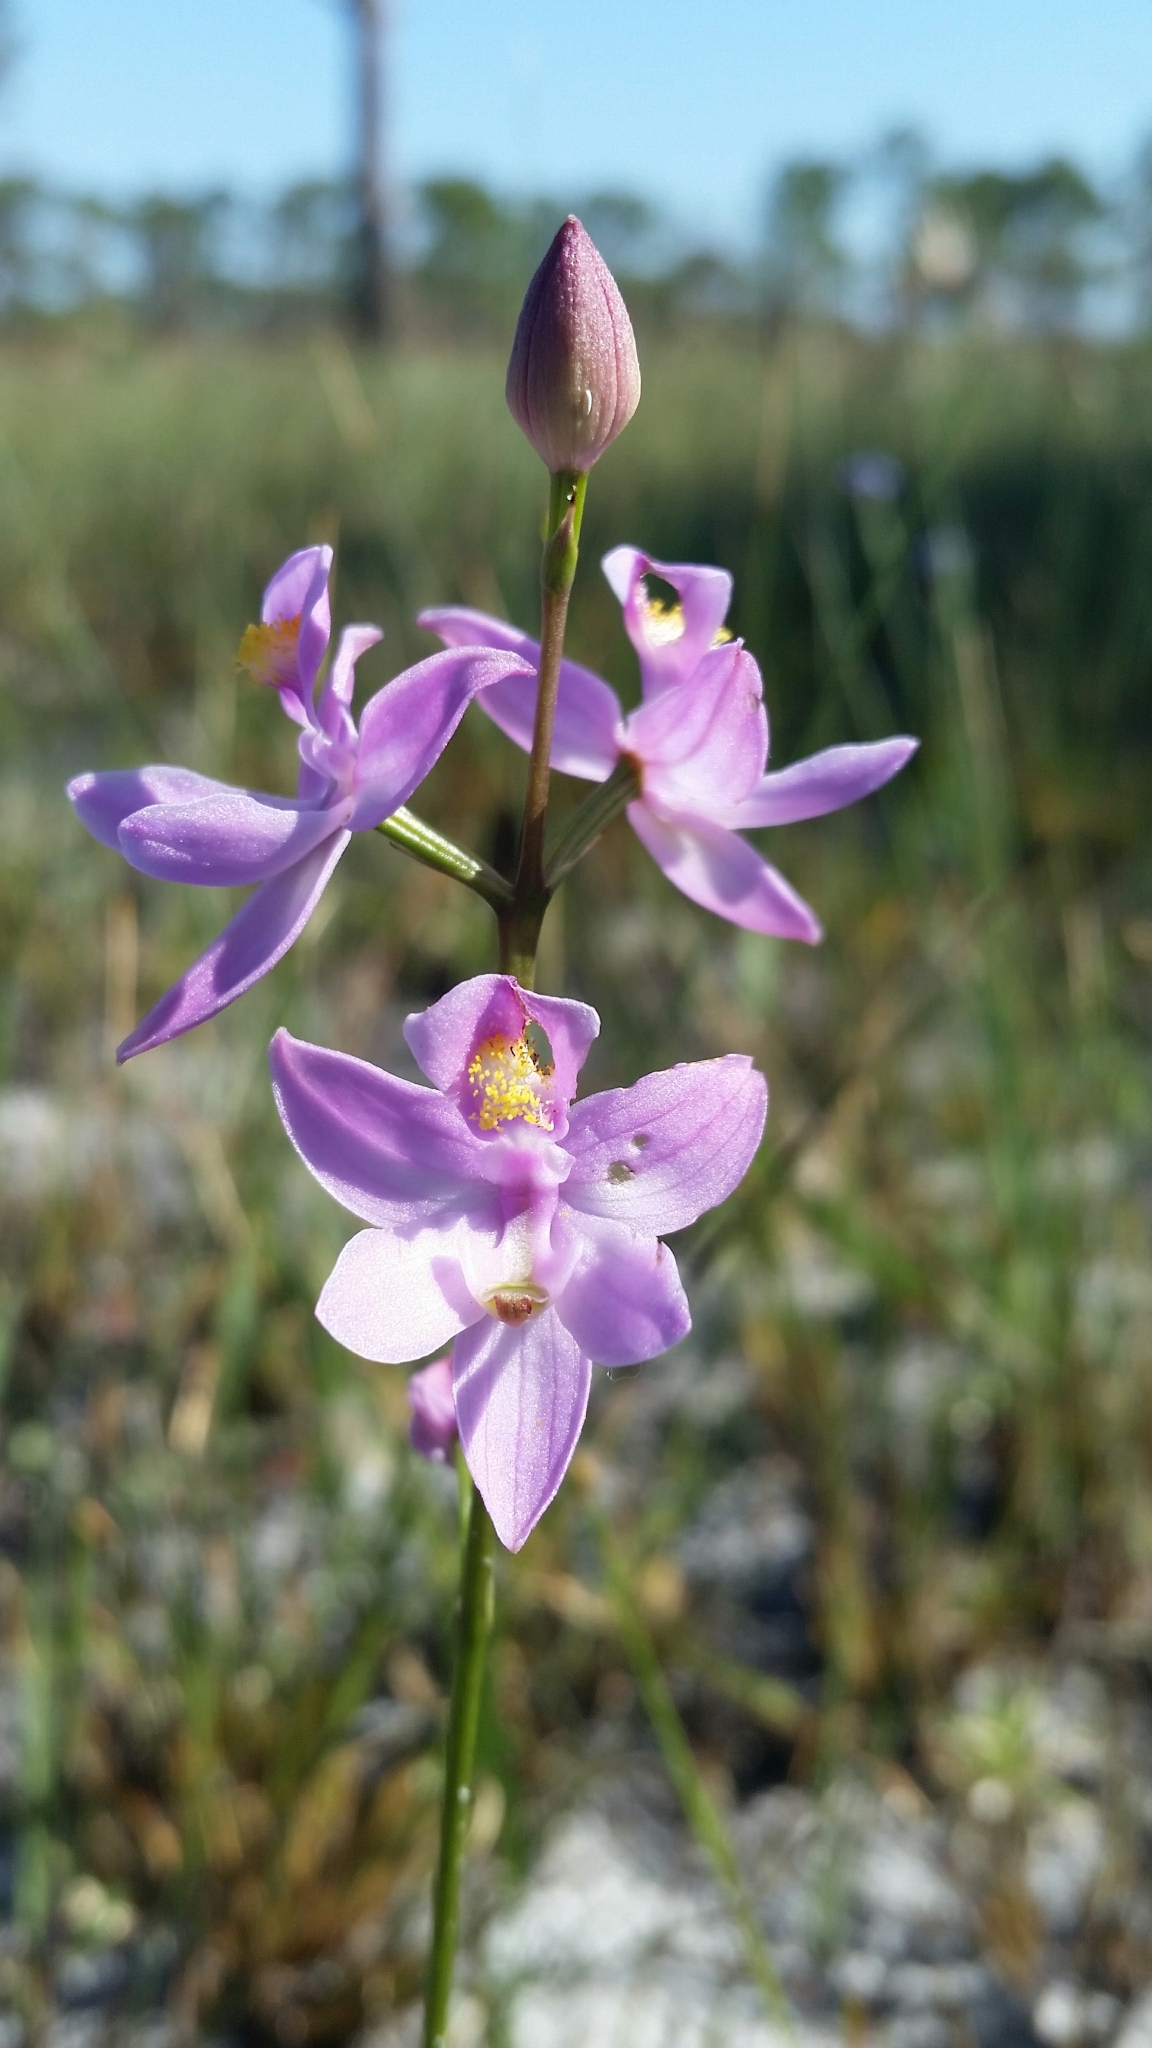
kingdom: Plantae
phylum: Tracheophyta
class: Liliopsida
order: Asparagales
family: Orchidaceae
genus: Calopogon
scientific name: Calopogon multiflorus
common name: Many-flowered grass-pink orchid
